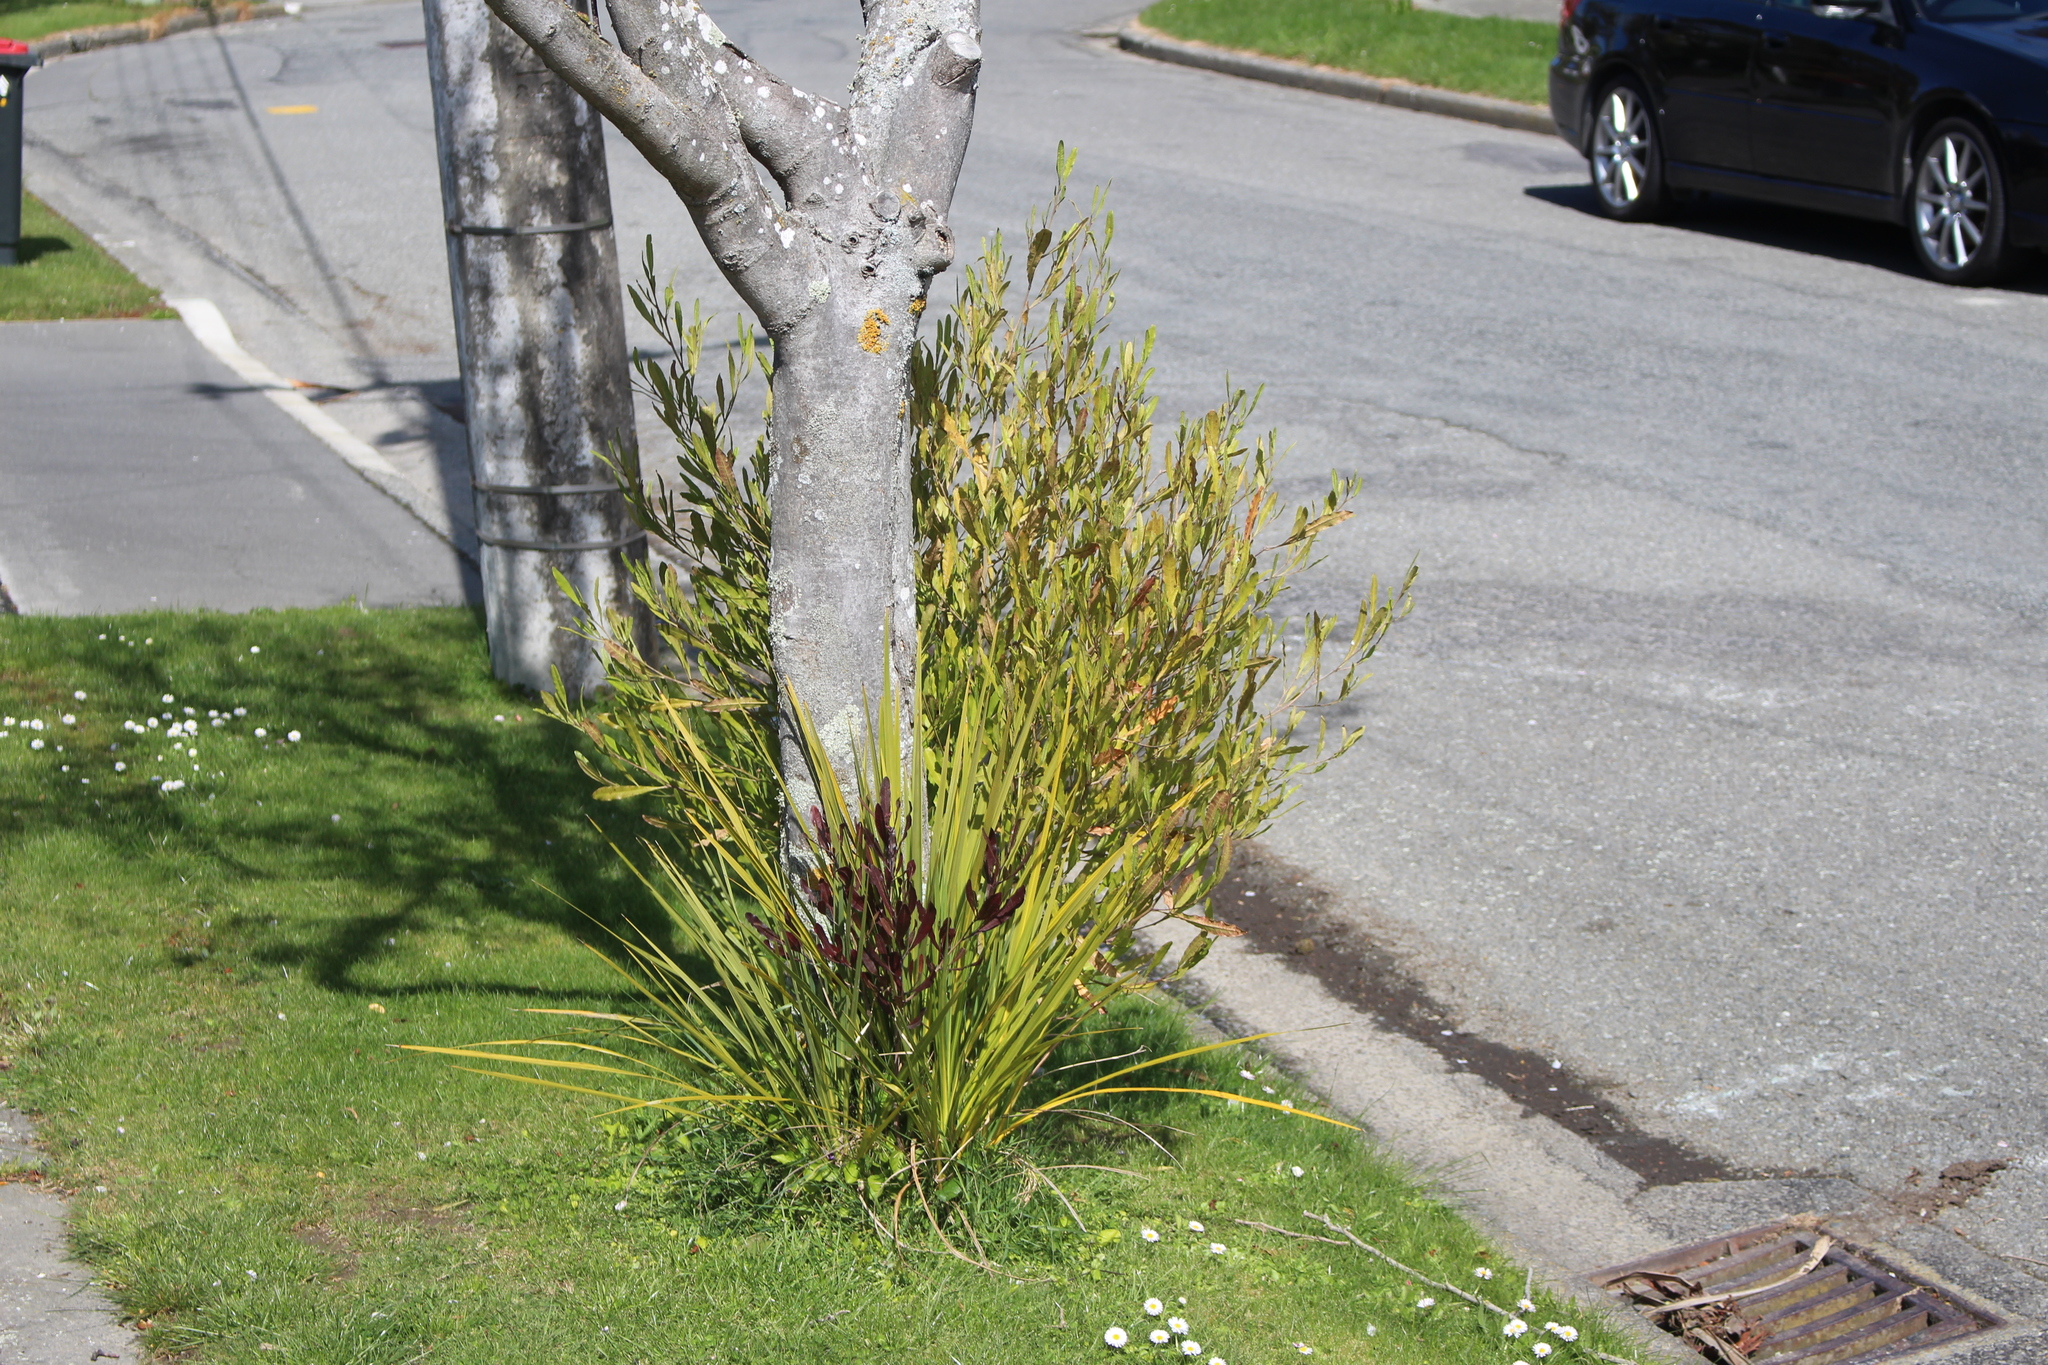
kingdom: Plantae
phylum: Tracheophyta
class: Liliopsida
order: Asparagales
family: Asparagaceae
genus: Cordyline
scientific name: Cordyline australis
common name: Cabbage-palm
